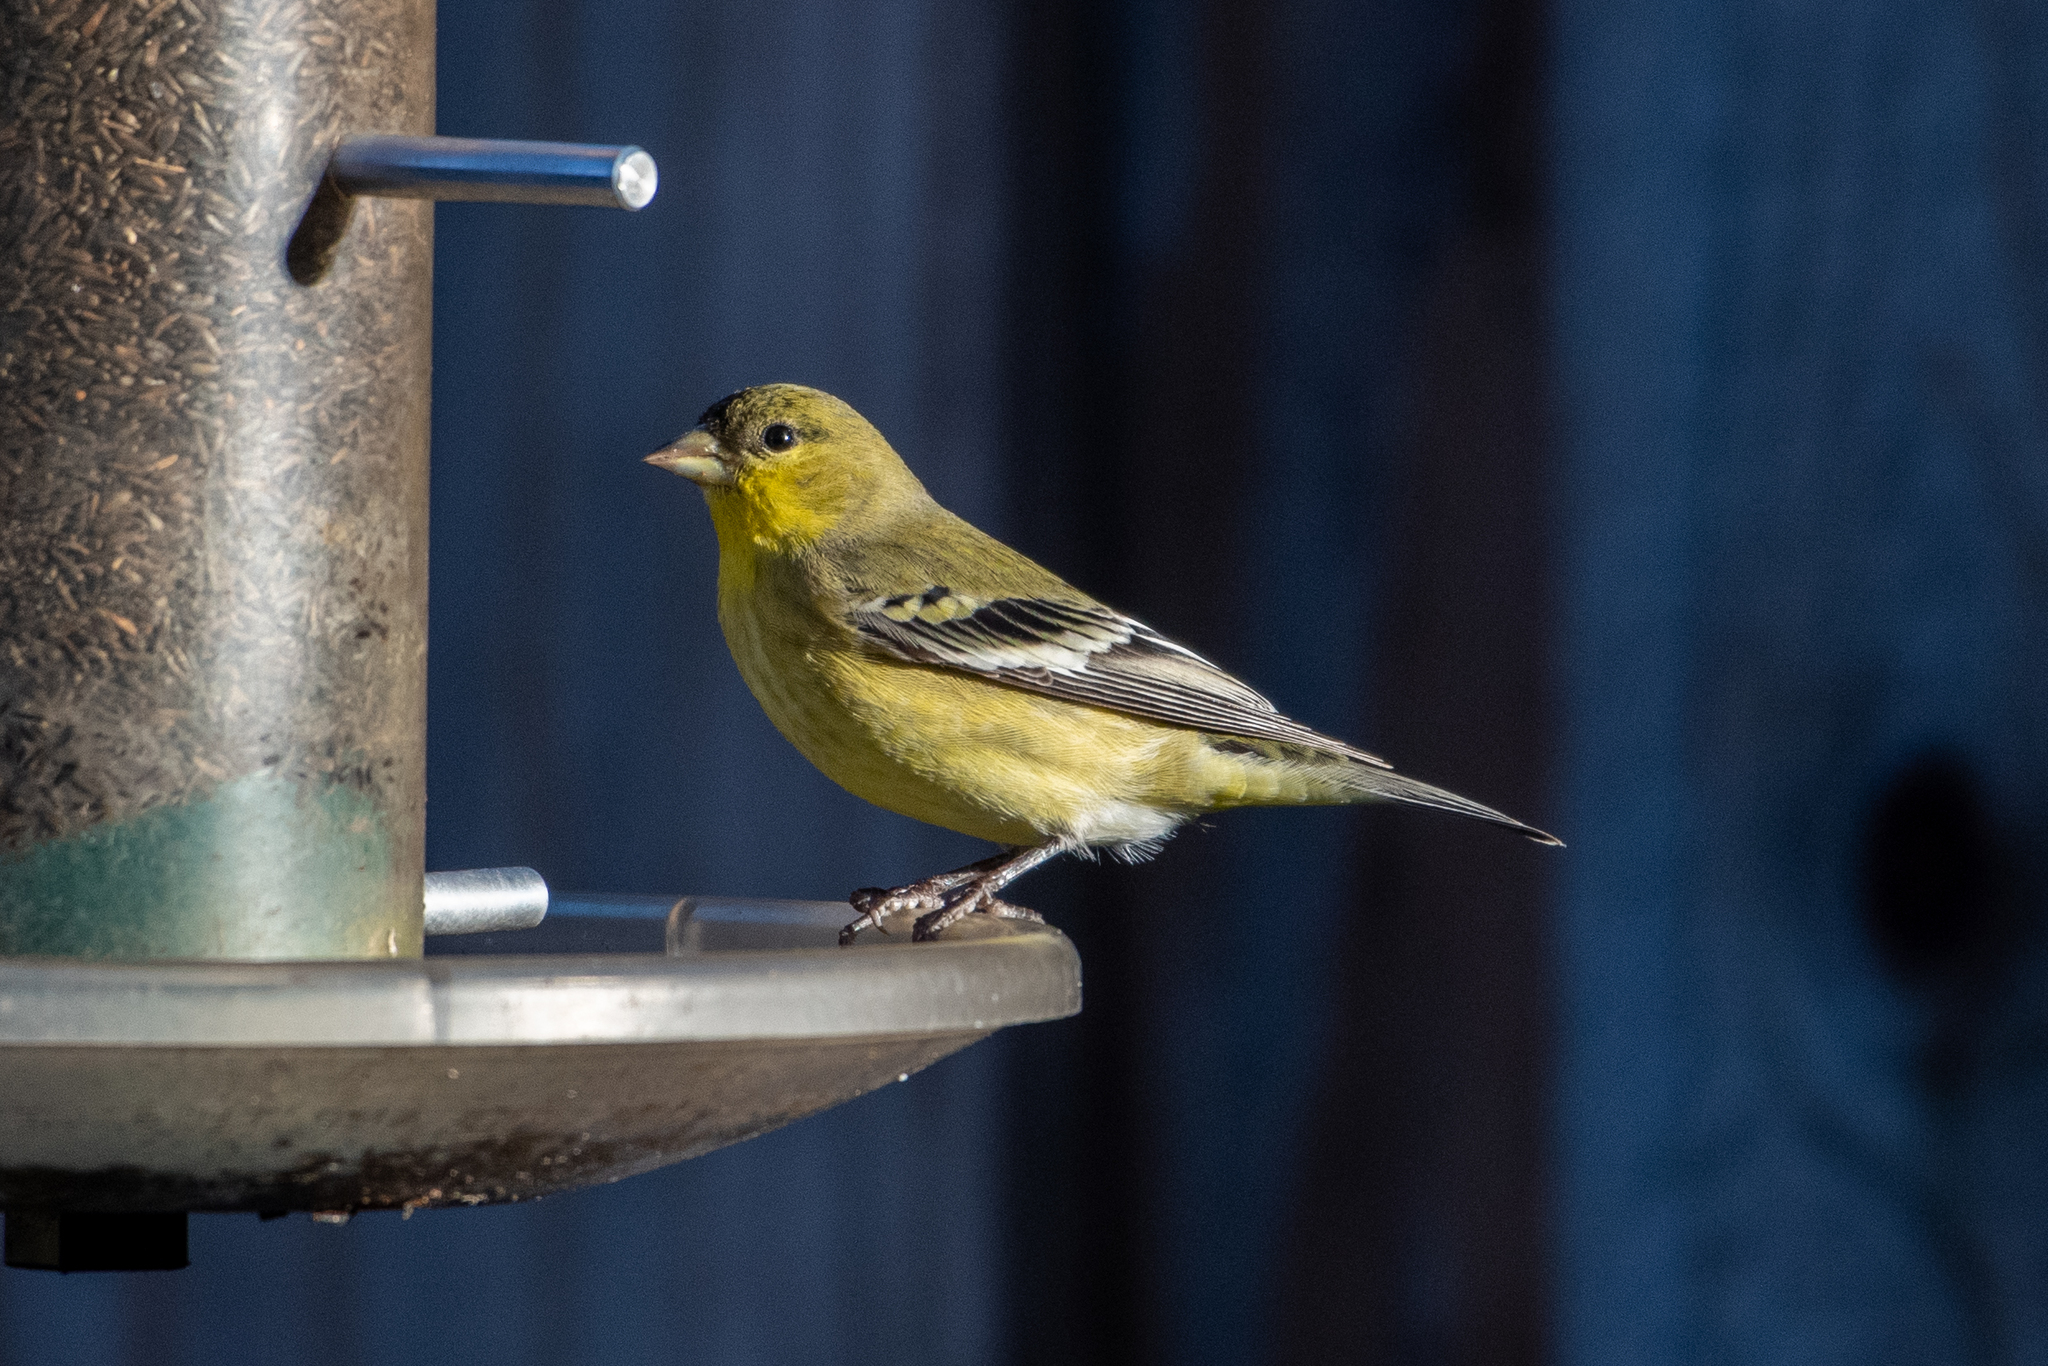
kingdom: Animalia
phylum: Chordata
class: Aves
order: Passeriformes
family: Fringillidae
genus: Spinus
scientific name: Spinus psaltria
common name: Lesser goldfinch
